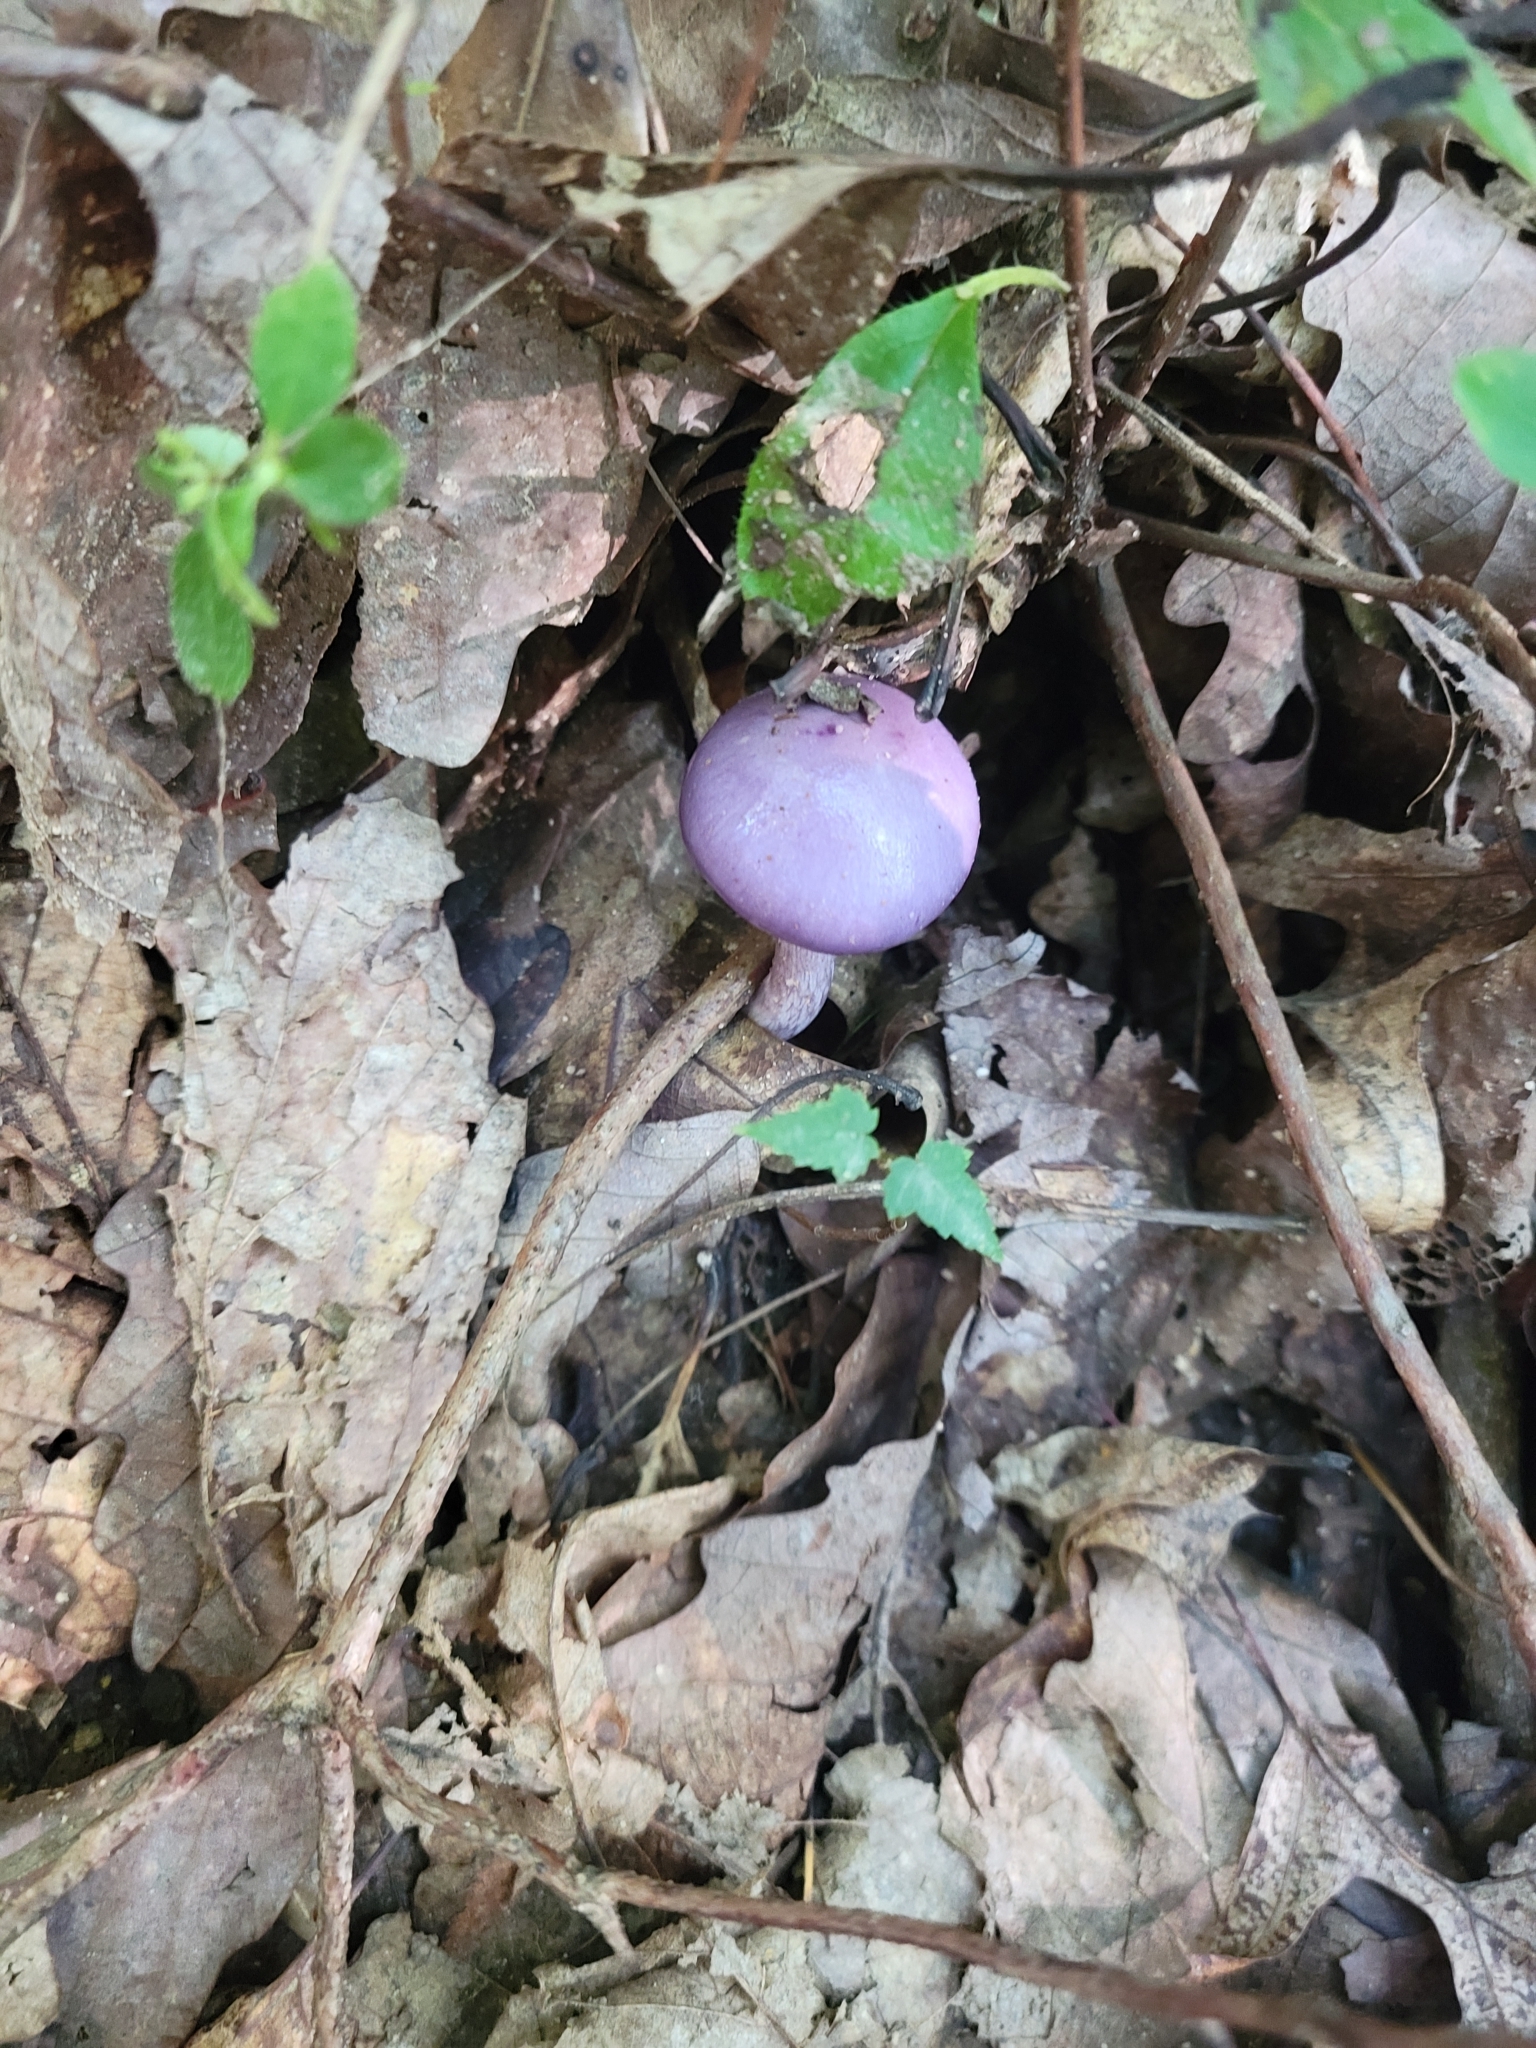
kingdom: Fungi
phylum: Basidiomycota
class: Agaricomycetes
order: Agaricales
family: Cortinariaceae
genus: Cortinarius
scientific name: Cortinarius iodes
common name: Viscid violet cort
